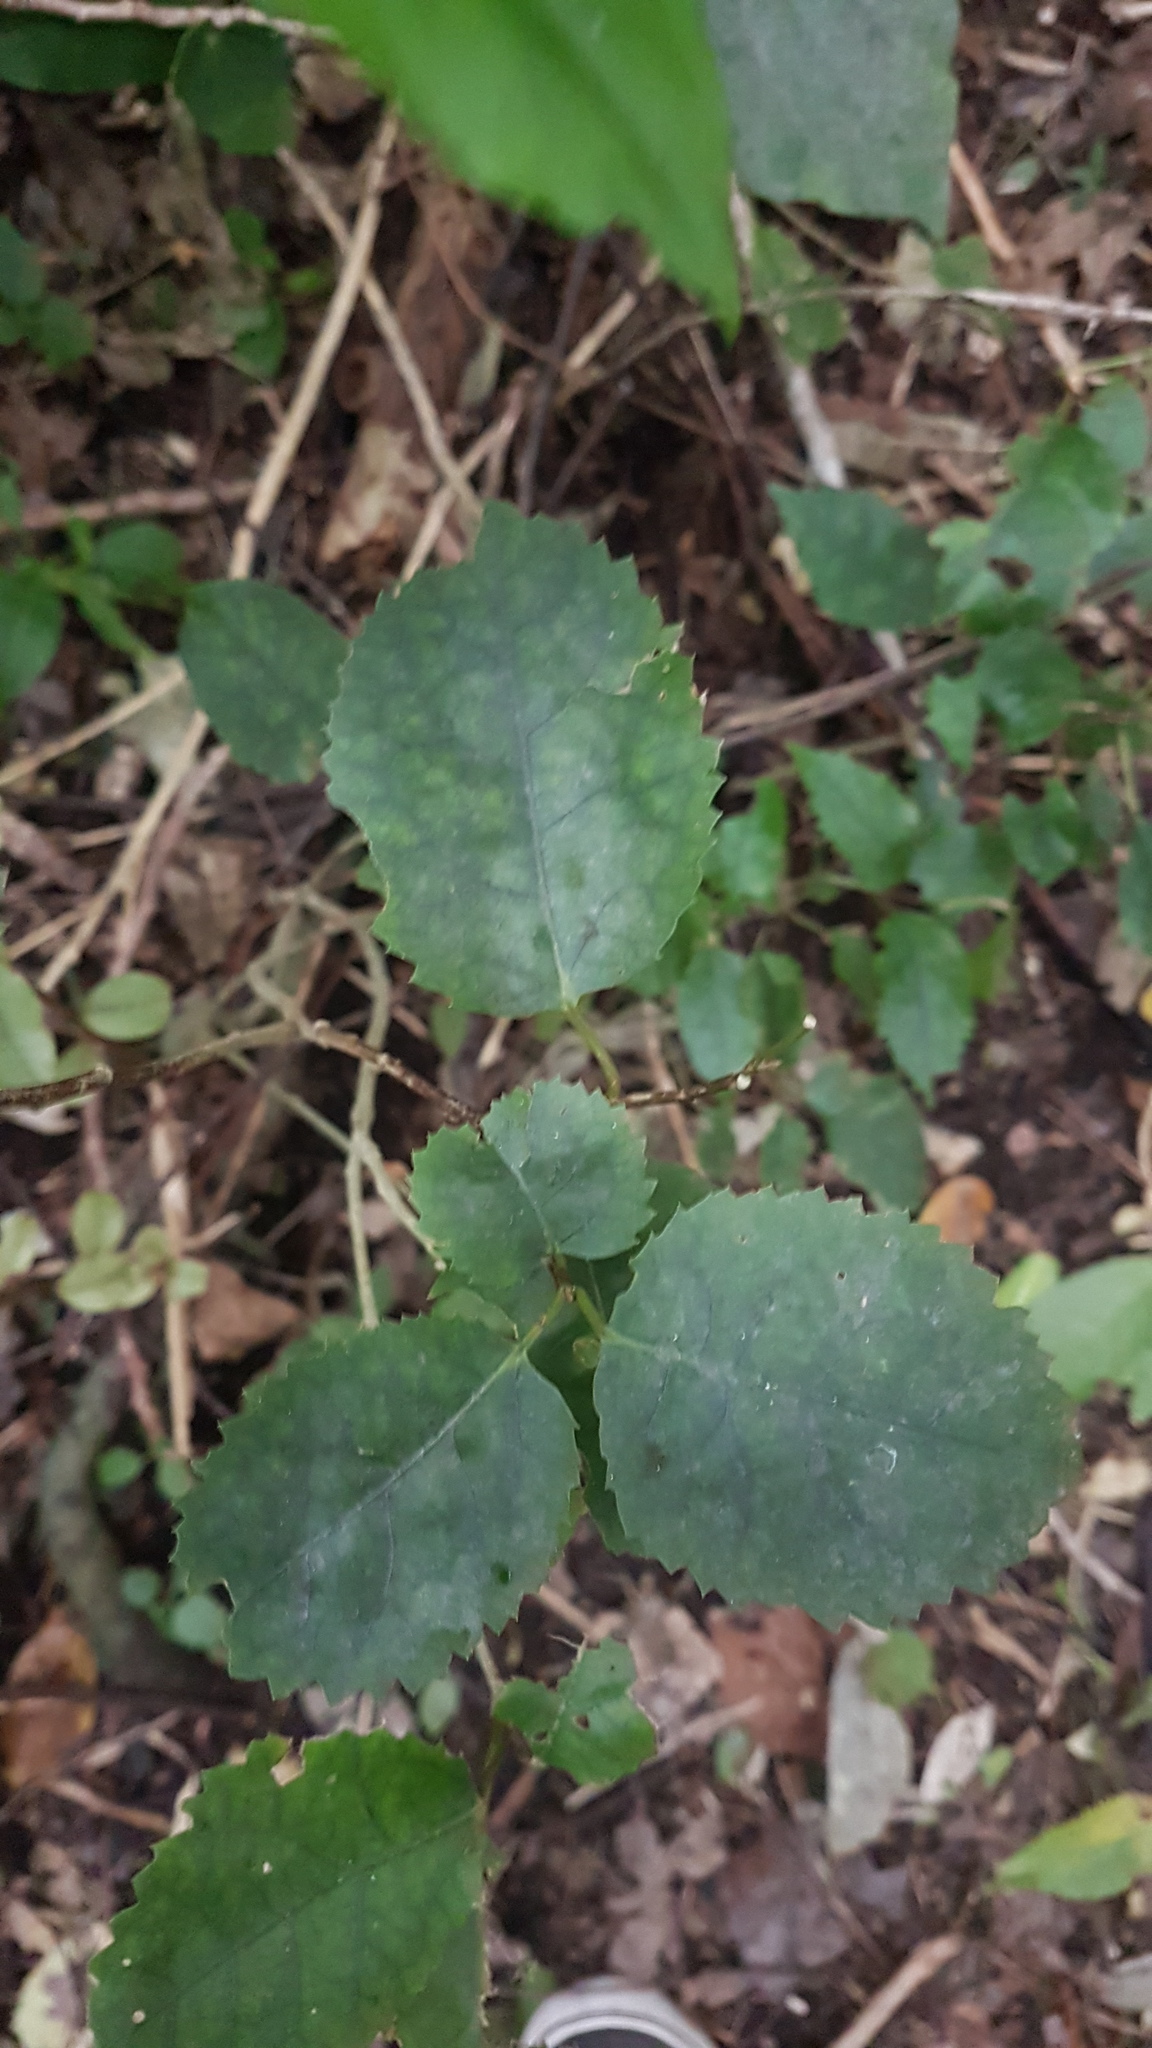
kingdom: Plantae
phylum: Tracheophyta
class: Magnoliopsida
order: Malvales
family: Malvaceae
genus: Hoheria
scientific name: Hoheria populnea
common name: Lacebark
